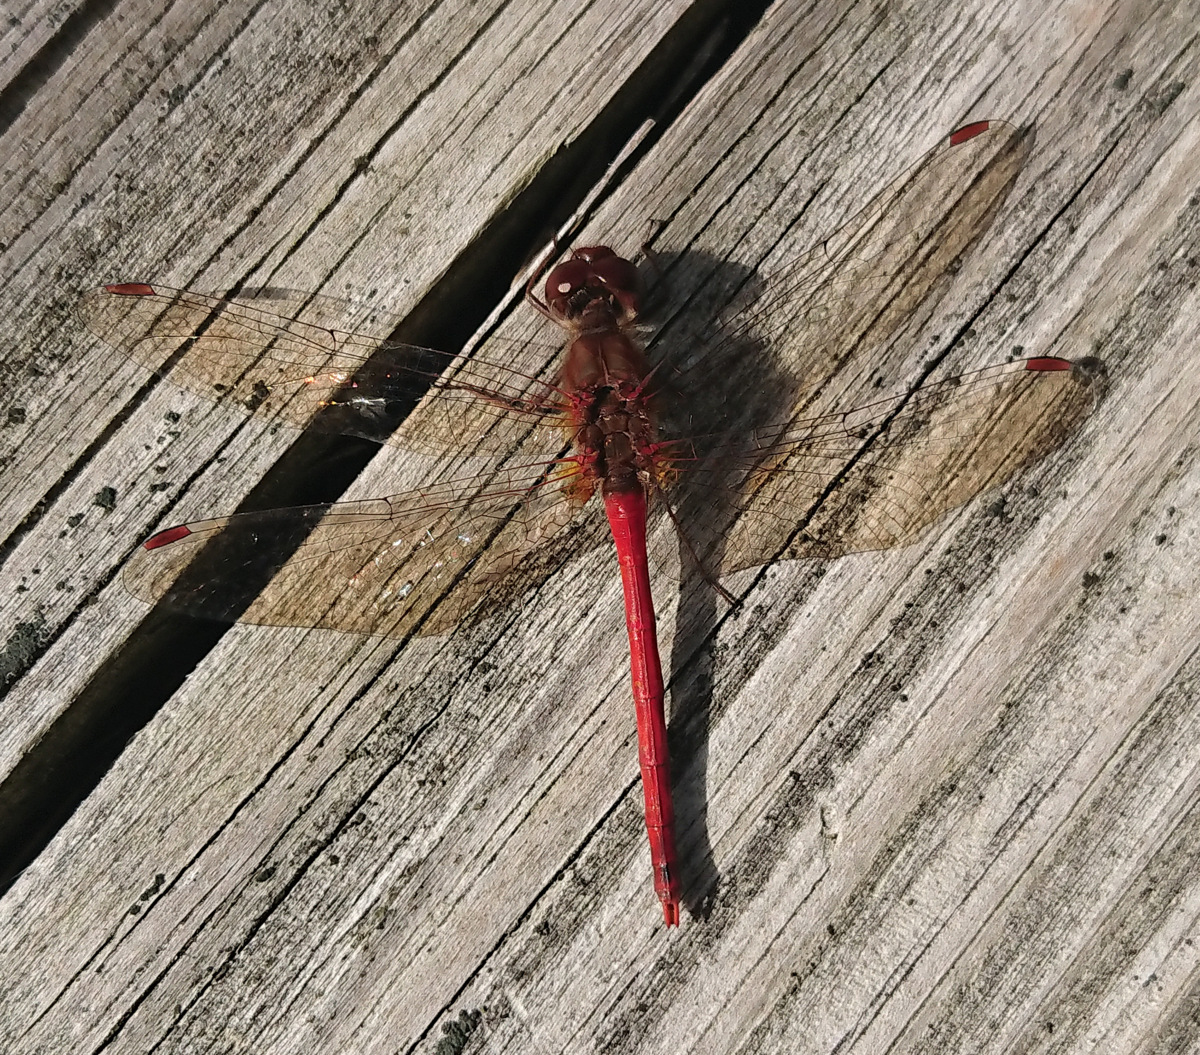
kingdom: Animalia
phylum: Arthropoda
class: Insecta
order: Odonata
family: Libellulidae
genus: Sympetrum
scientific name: Sympetrum vicinum
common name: Autumn meadowhawk
